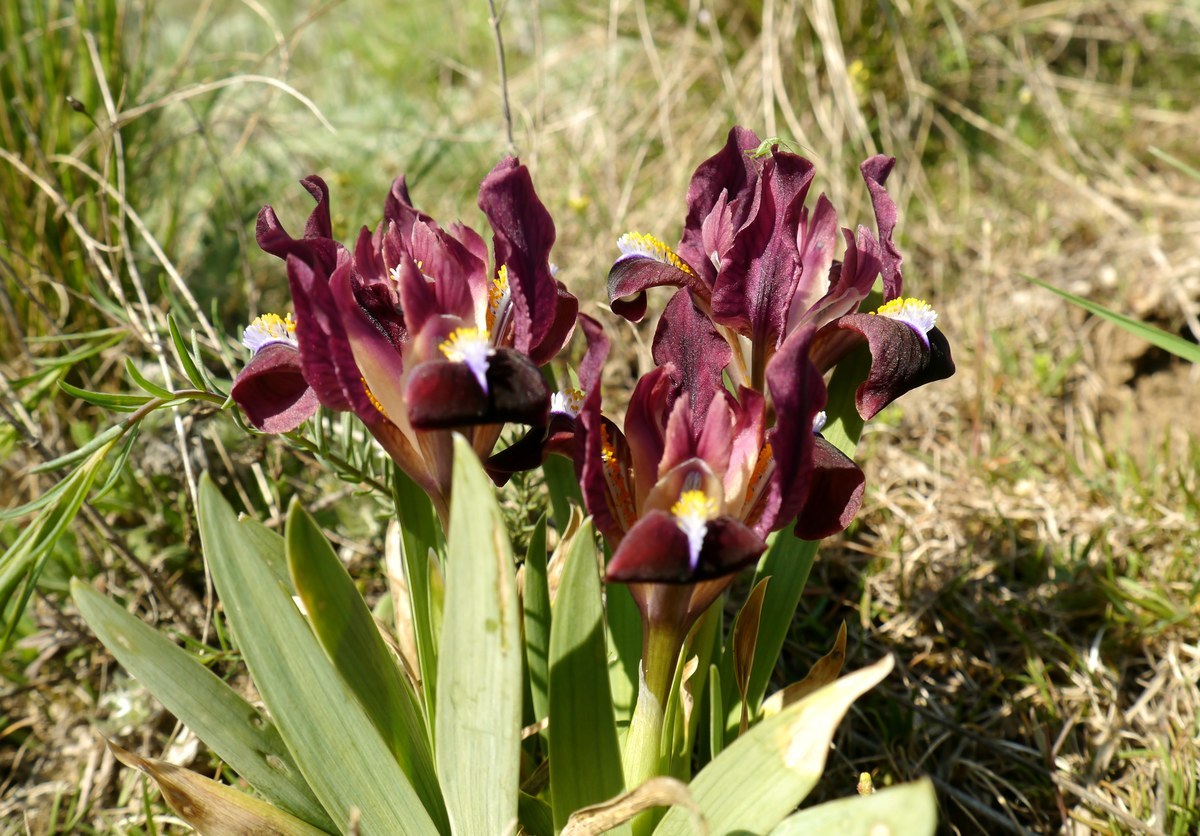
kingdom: Plantae
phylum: Tracheophyta
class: Liliopsida
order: Asparagales
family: Iridaceae
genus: Iris
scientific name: Iris pumila
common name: Dwarf iris
